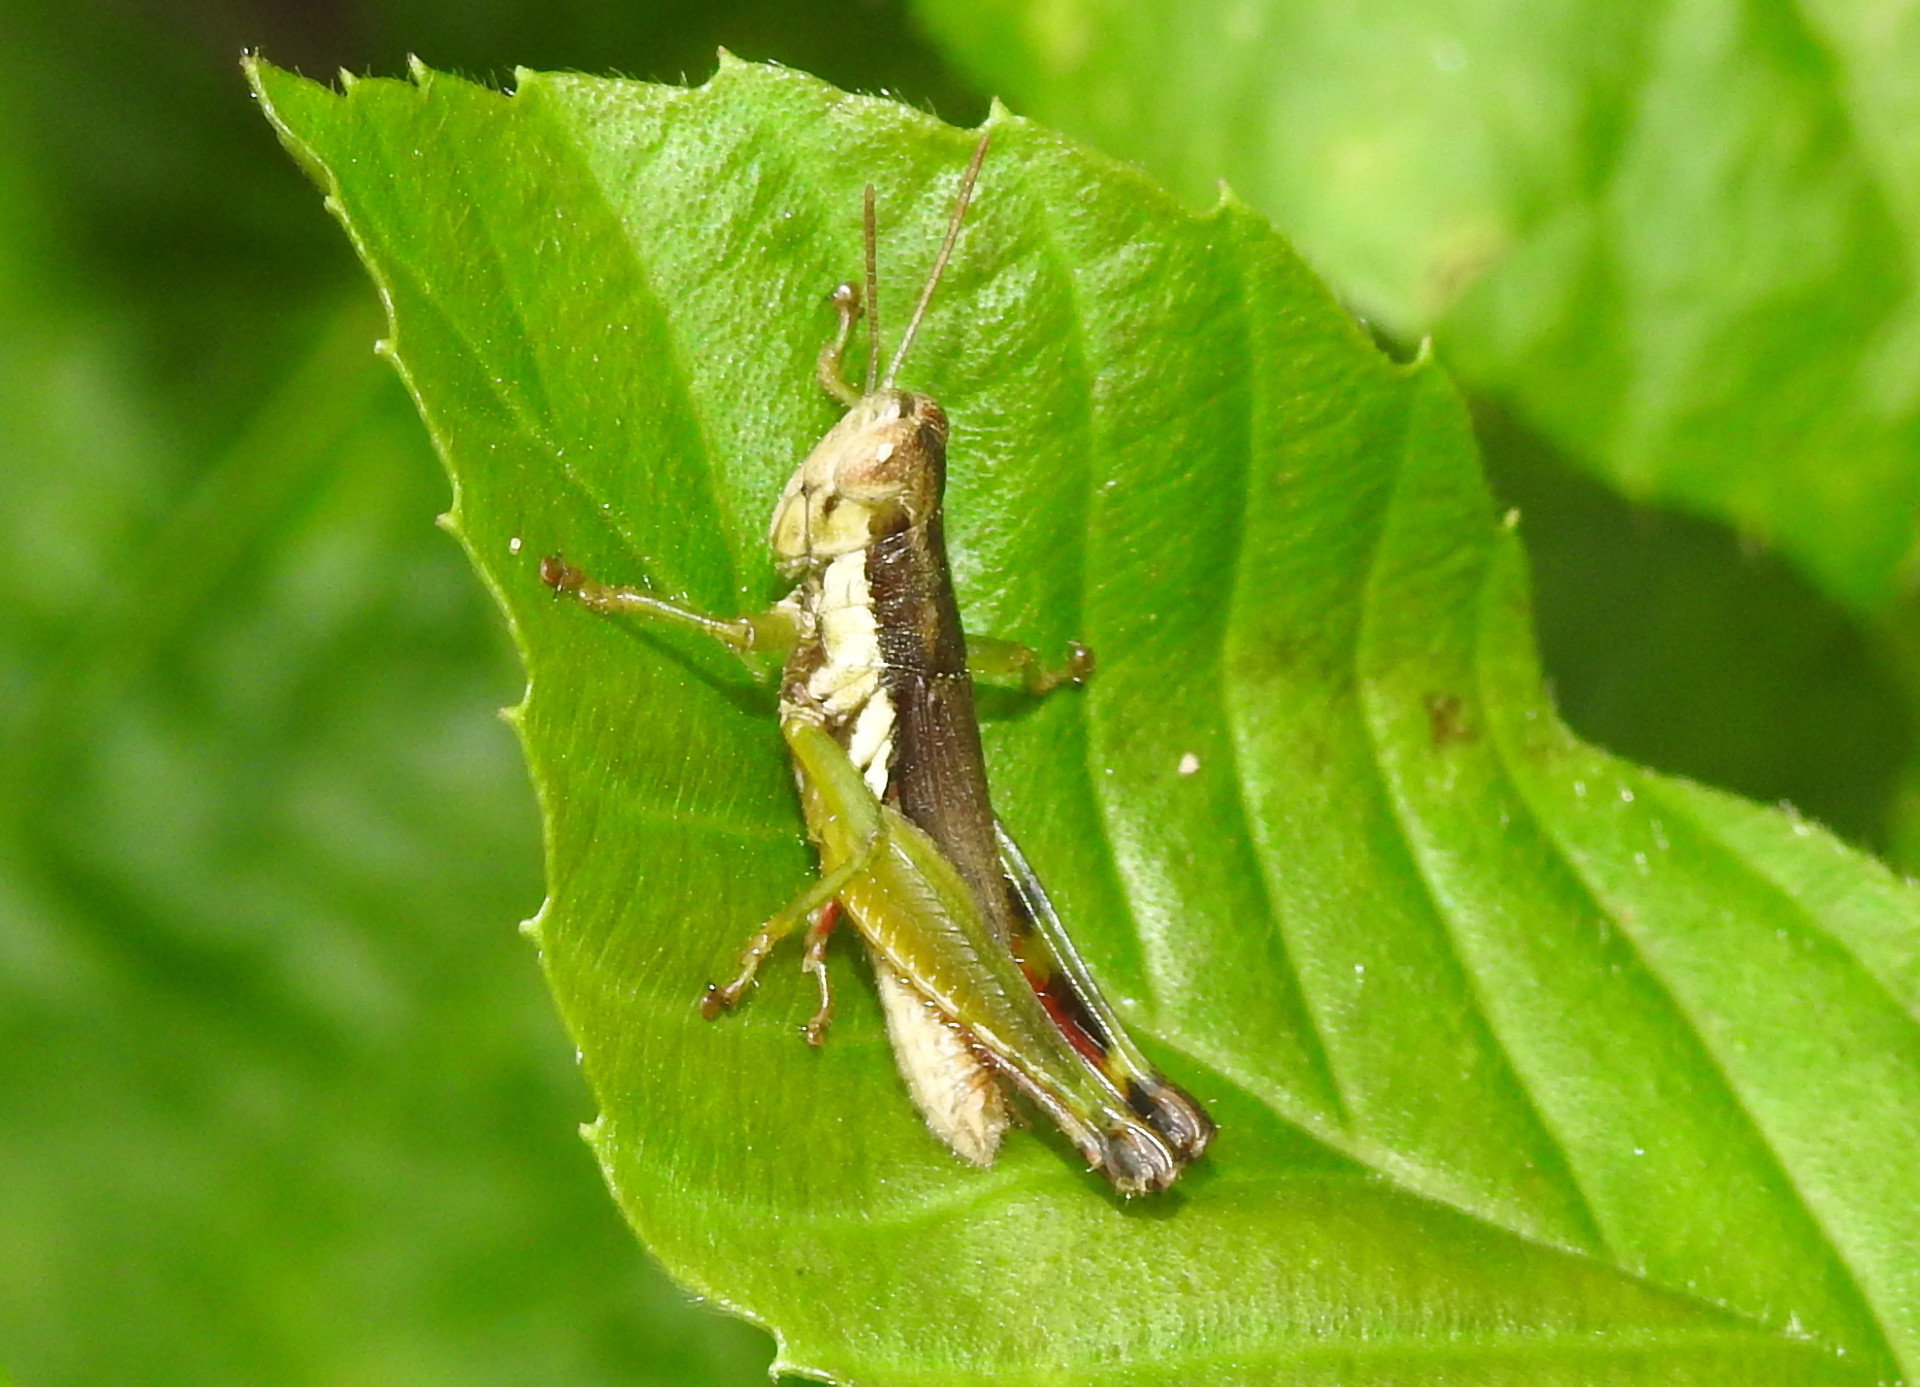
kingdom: Animalia
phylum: Arthropoda
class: Insecta
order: Orthoptera
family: Acrididae
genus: Pseudoxya
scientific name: Pseudoxya diminuta
